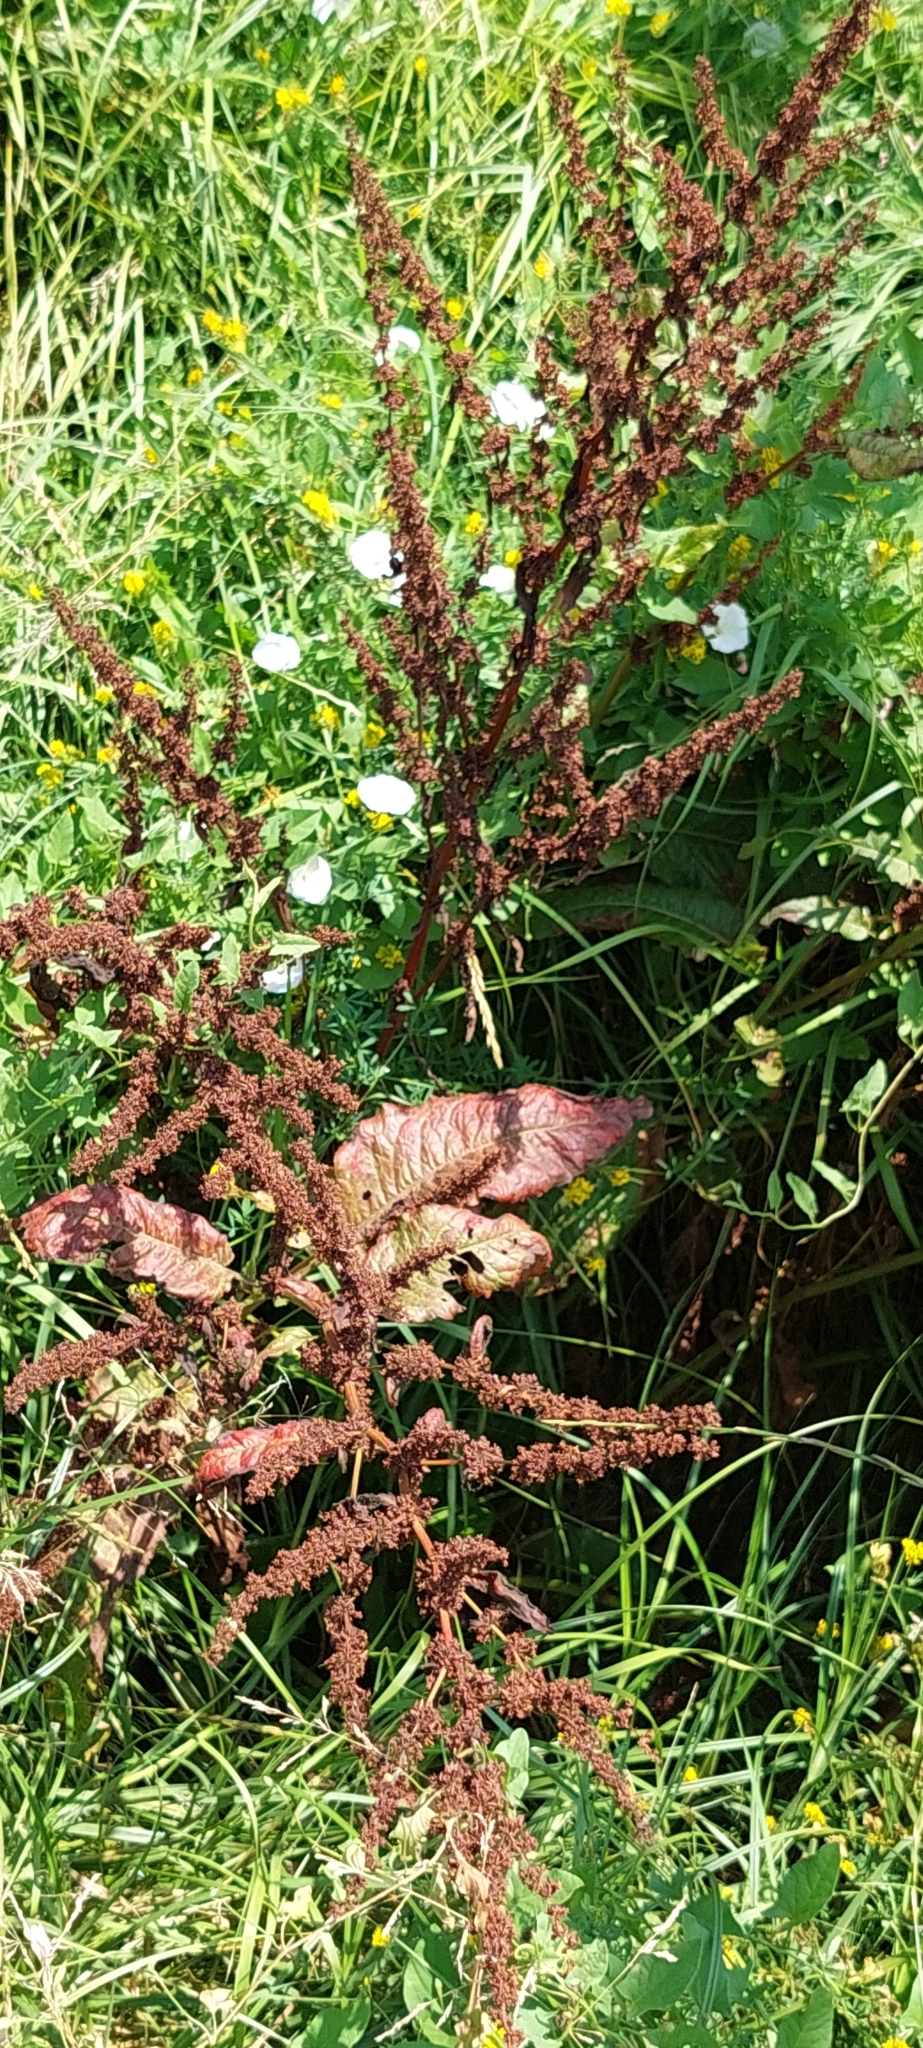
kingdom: Plantae
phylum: Tracheophyta
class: Magnoliopsida
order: Caryophyllales
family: Polygonaceae
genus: Rumex
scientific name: Rumex obtusifolius
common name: Bitter dock
